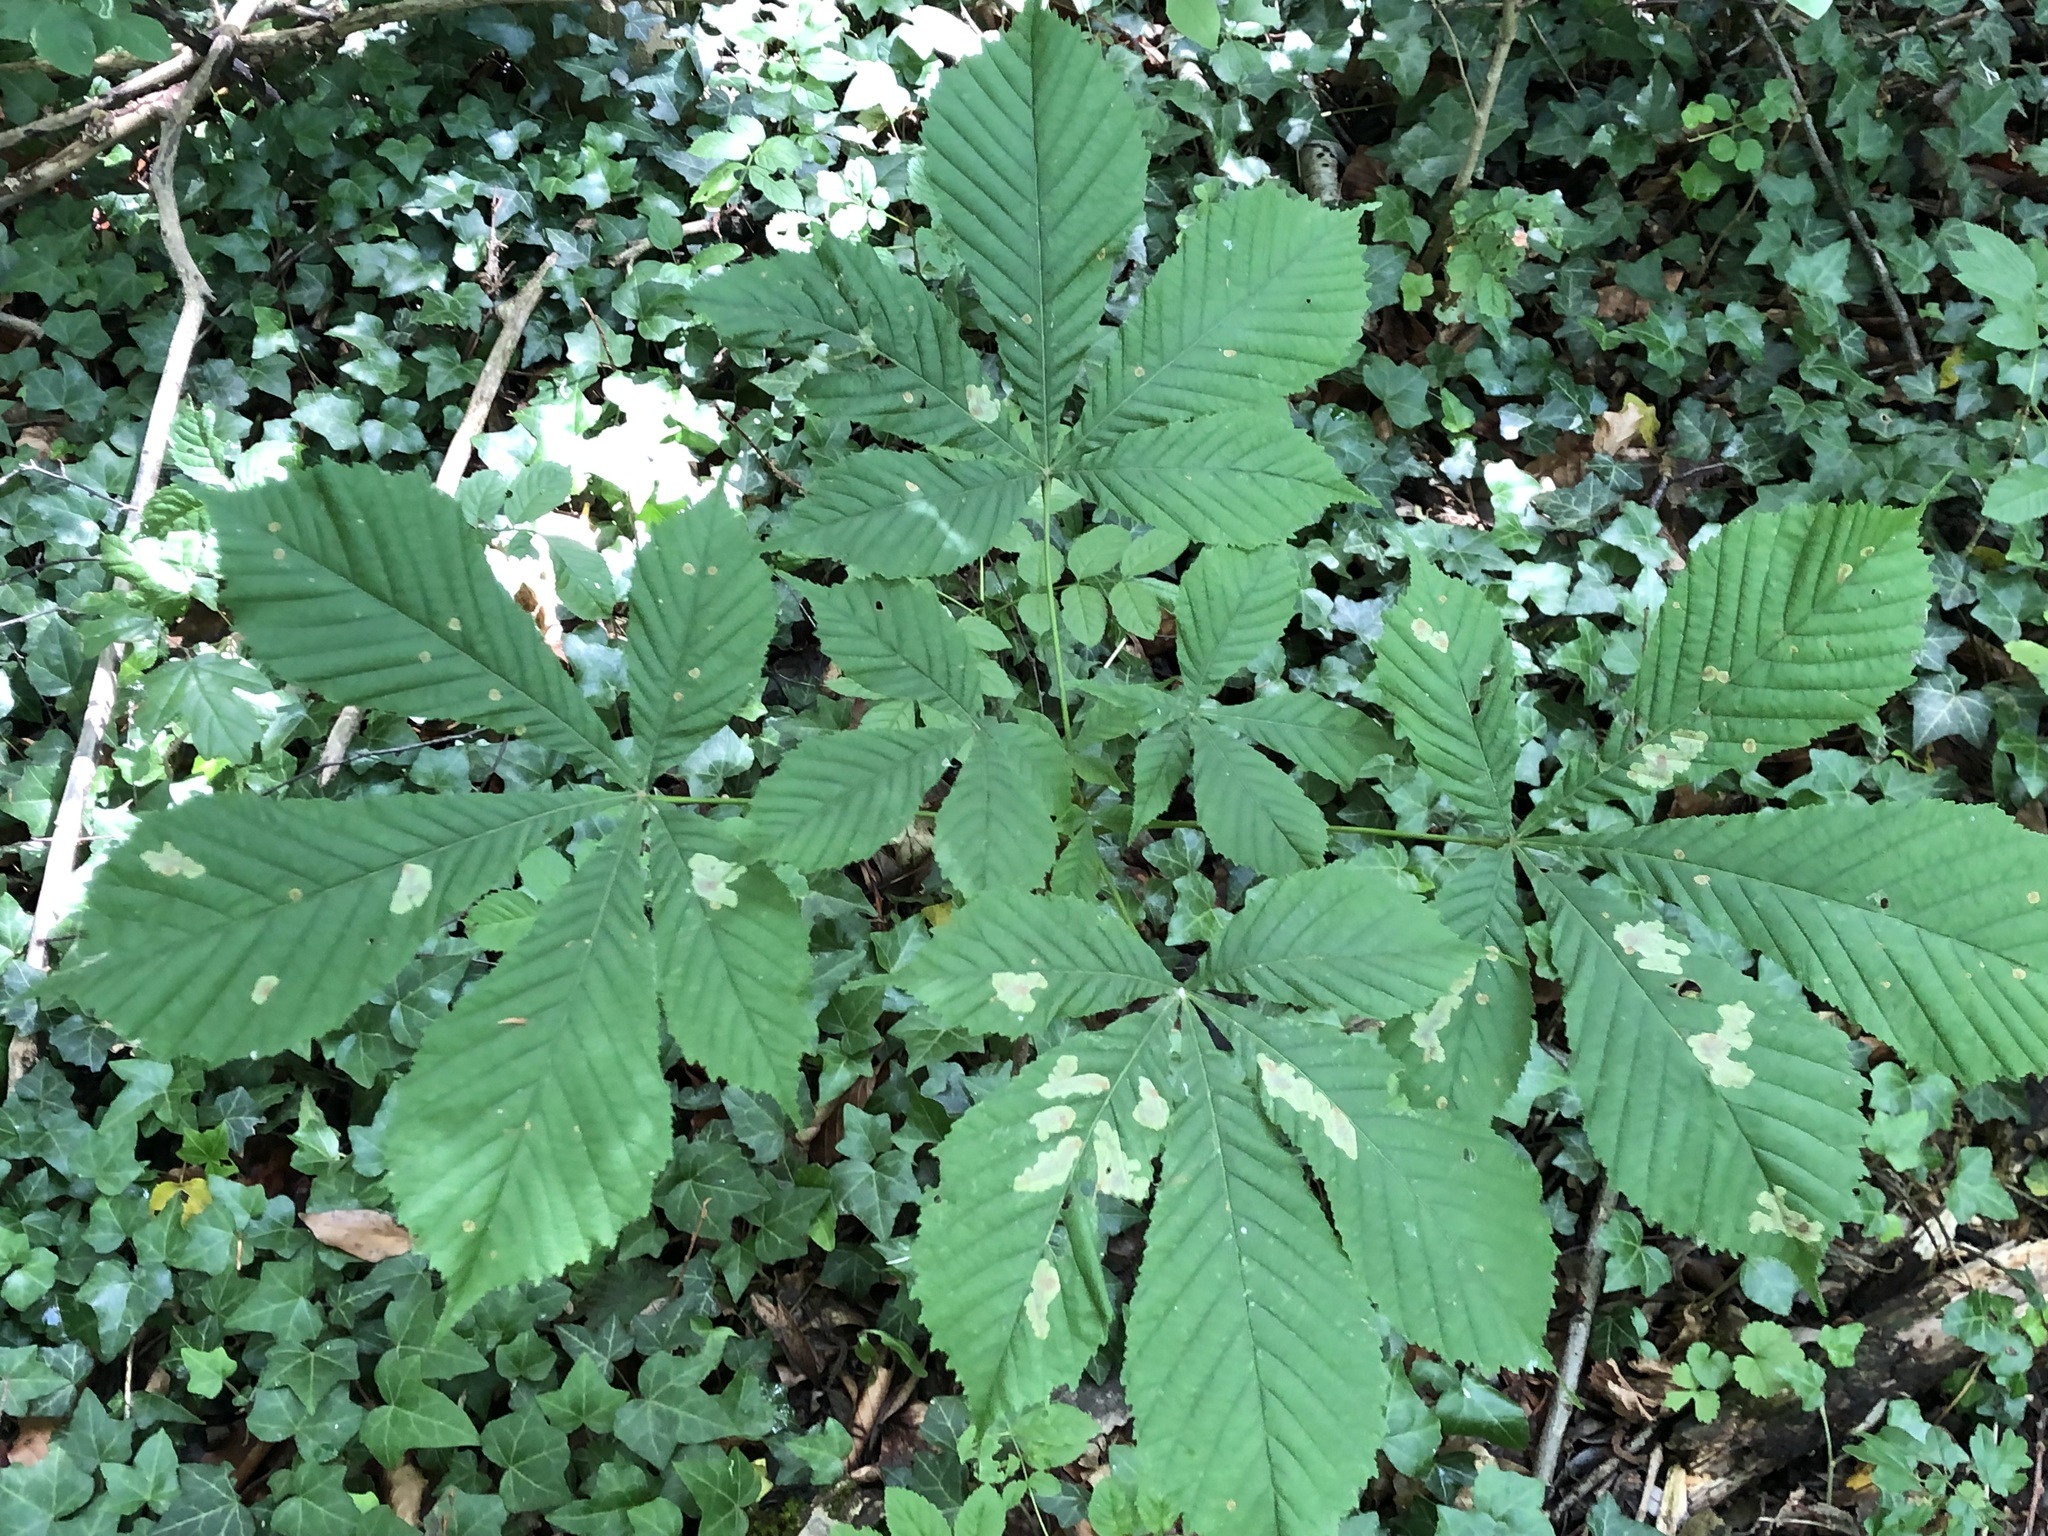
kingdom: Plantae
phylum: Tracheophyta
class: Magnoliopsida
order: Sapindales
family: Sapindaceae
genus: Aesculus
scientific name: Aesculus hippocastanum
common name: Horse-chestnut
